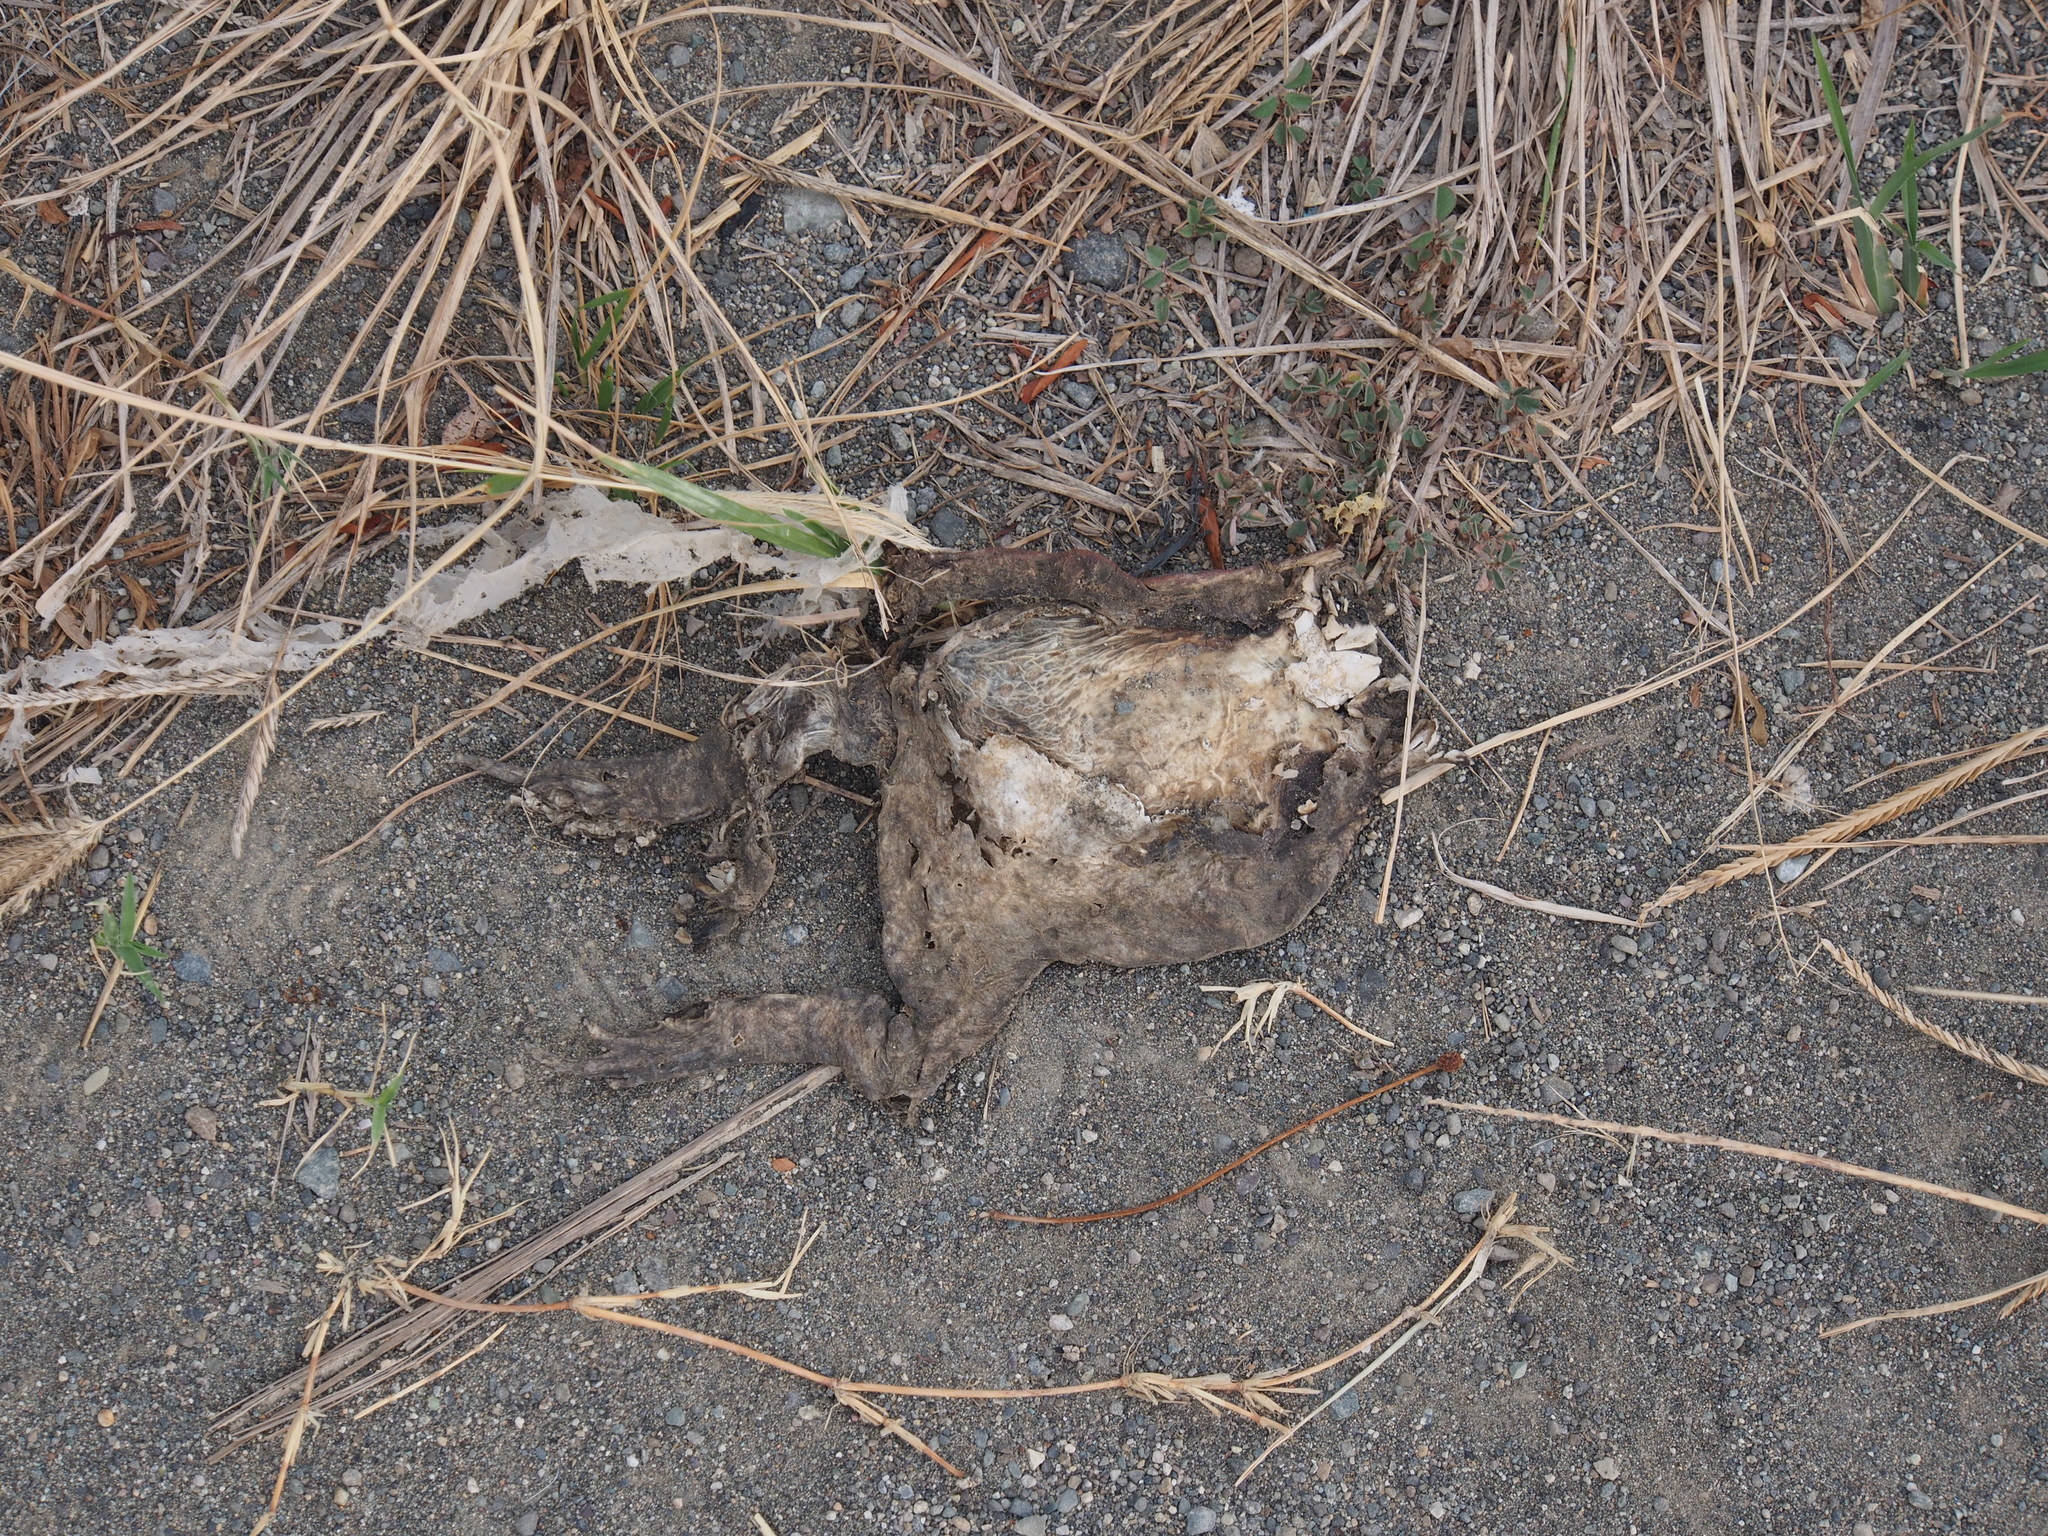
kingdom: Animalia
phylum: Chordata
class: Amphibia
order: Anura
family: Bufonidae
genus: Rhinella
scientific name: Rhinella horribilis
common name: Mesoamerican cane toad
